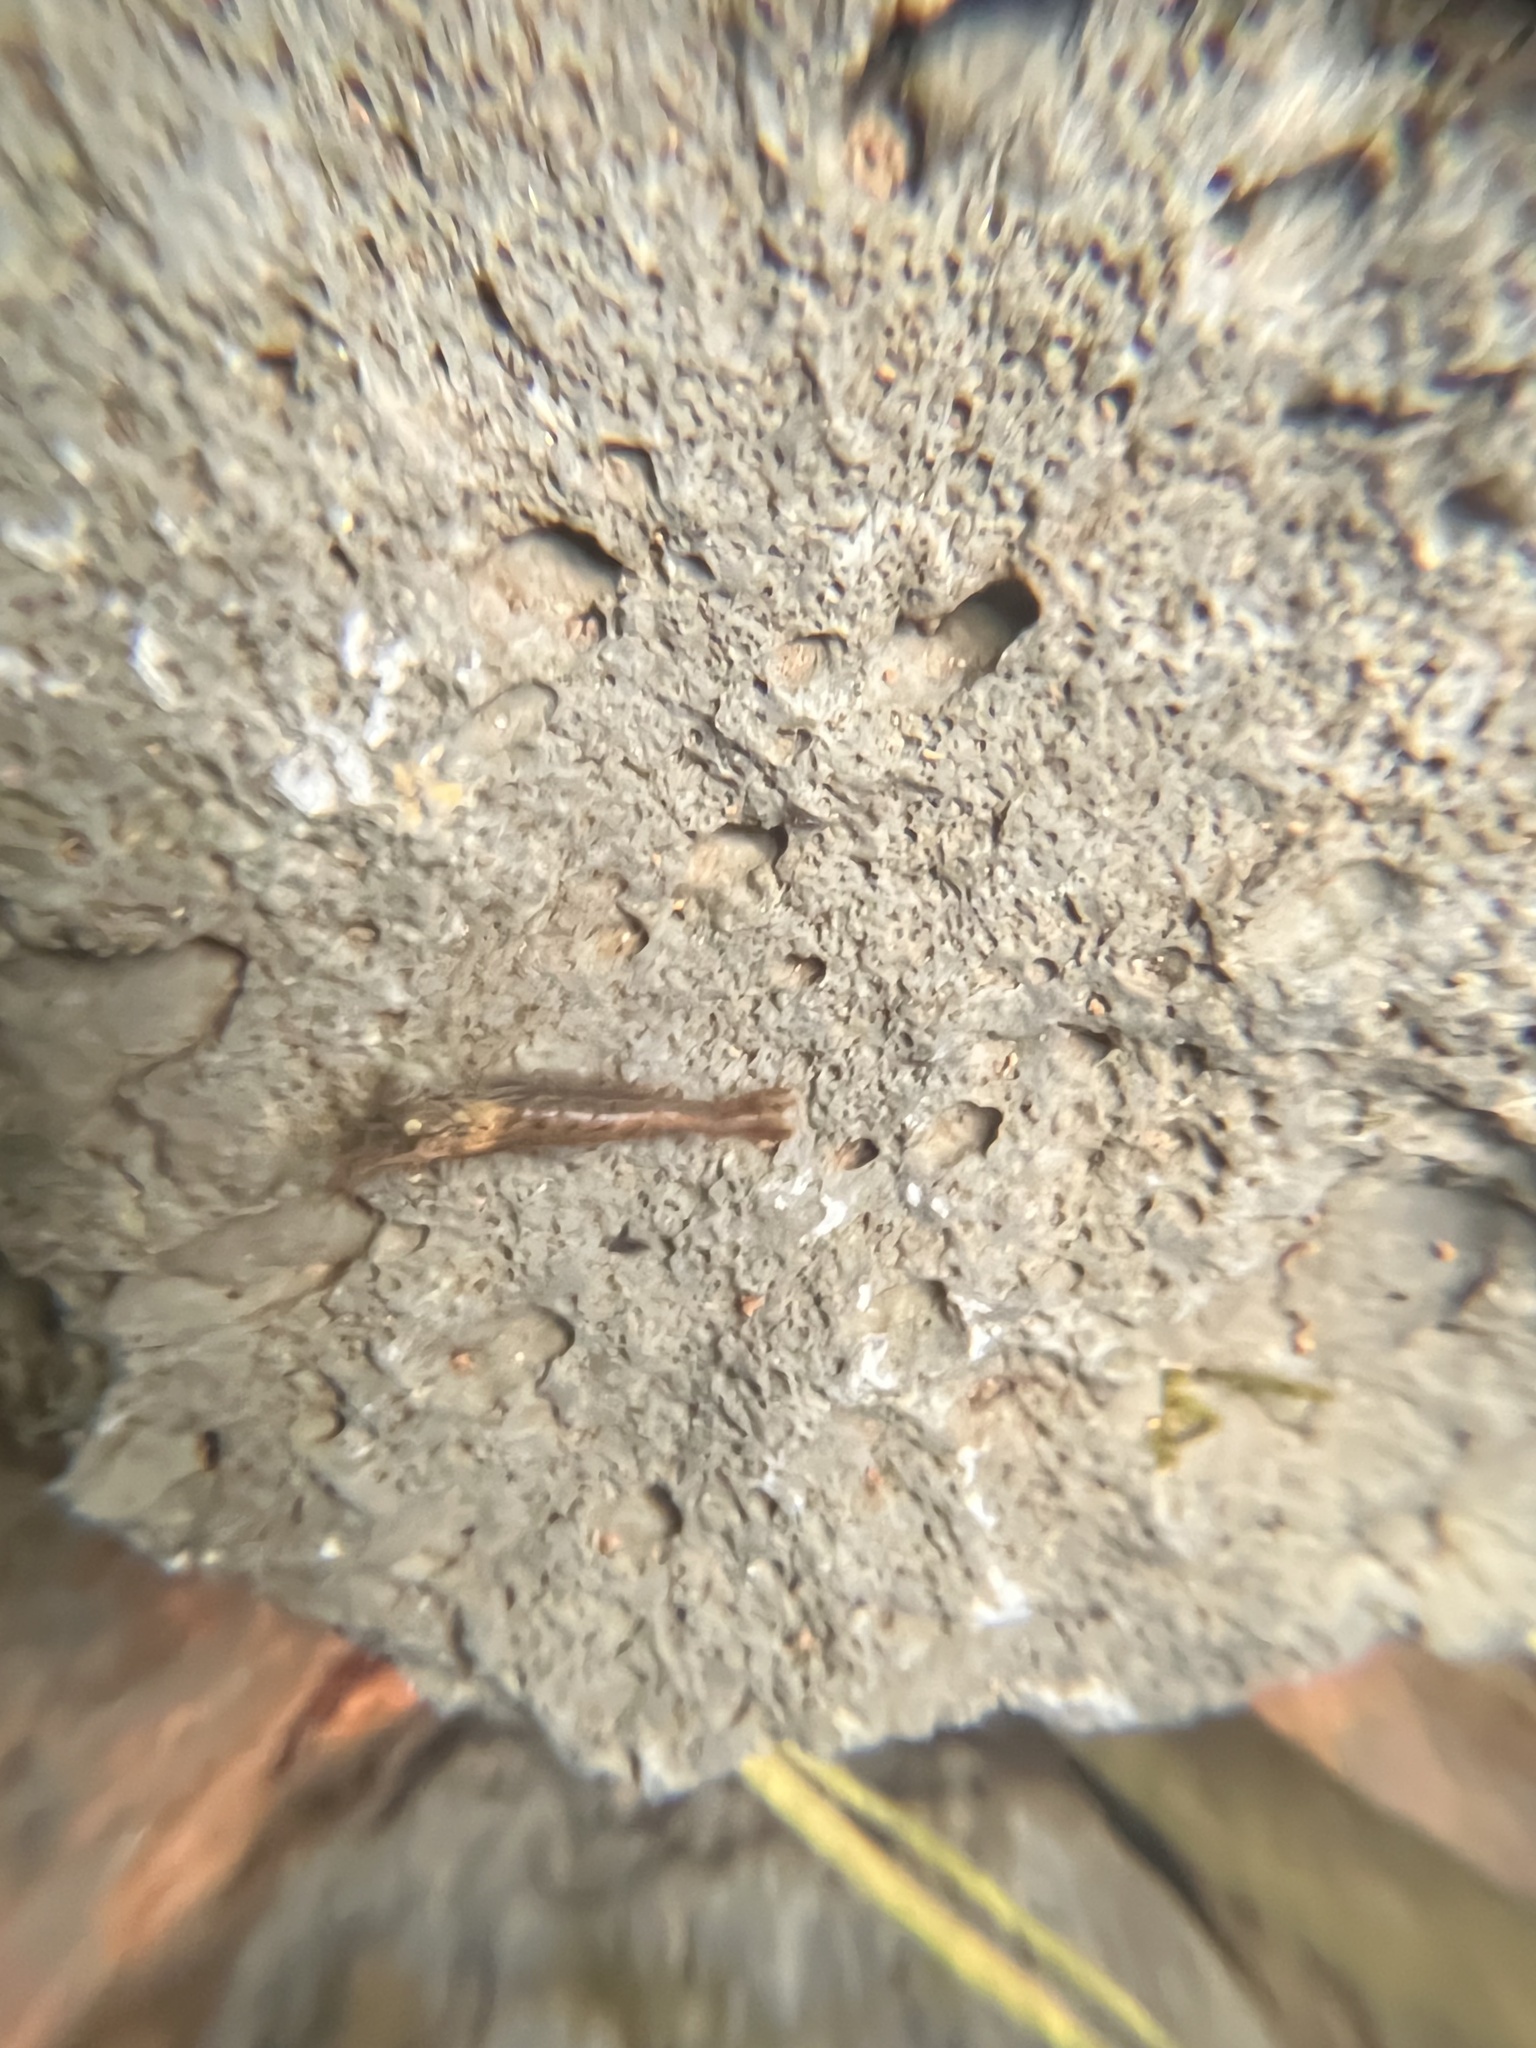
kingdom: Animalia
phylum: Arthropoda
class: Malacostraca
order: Decapoda
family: Atyidae
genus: Neocaridina
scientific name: Neocaridina davidi
